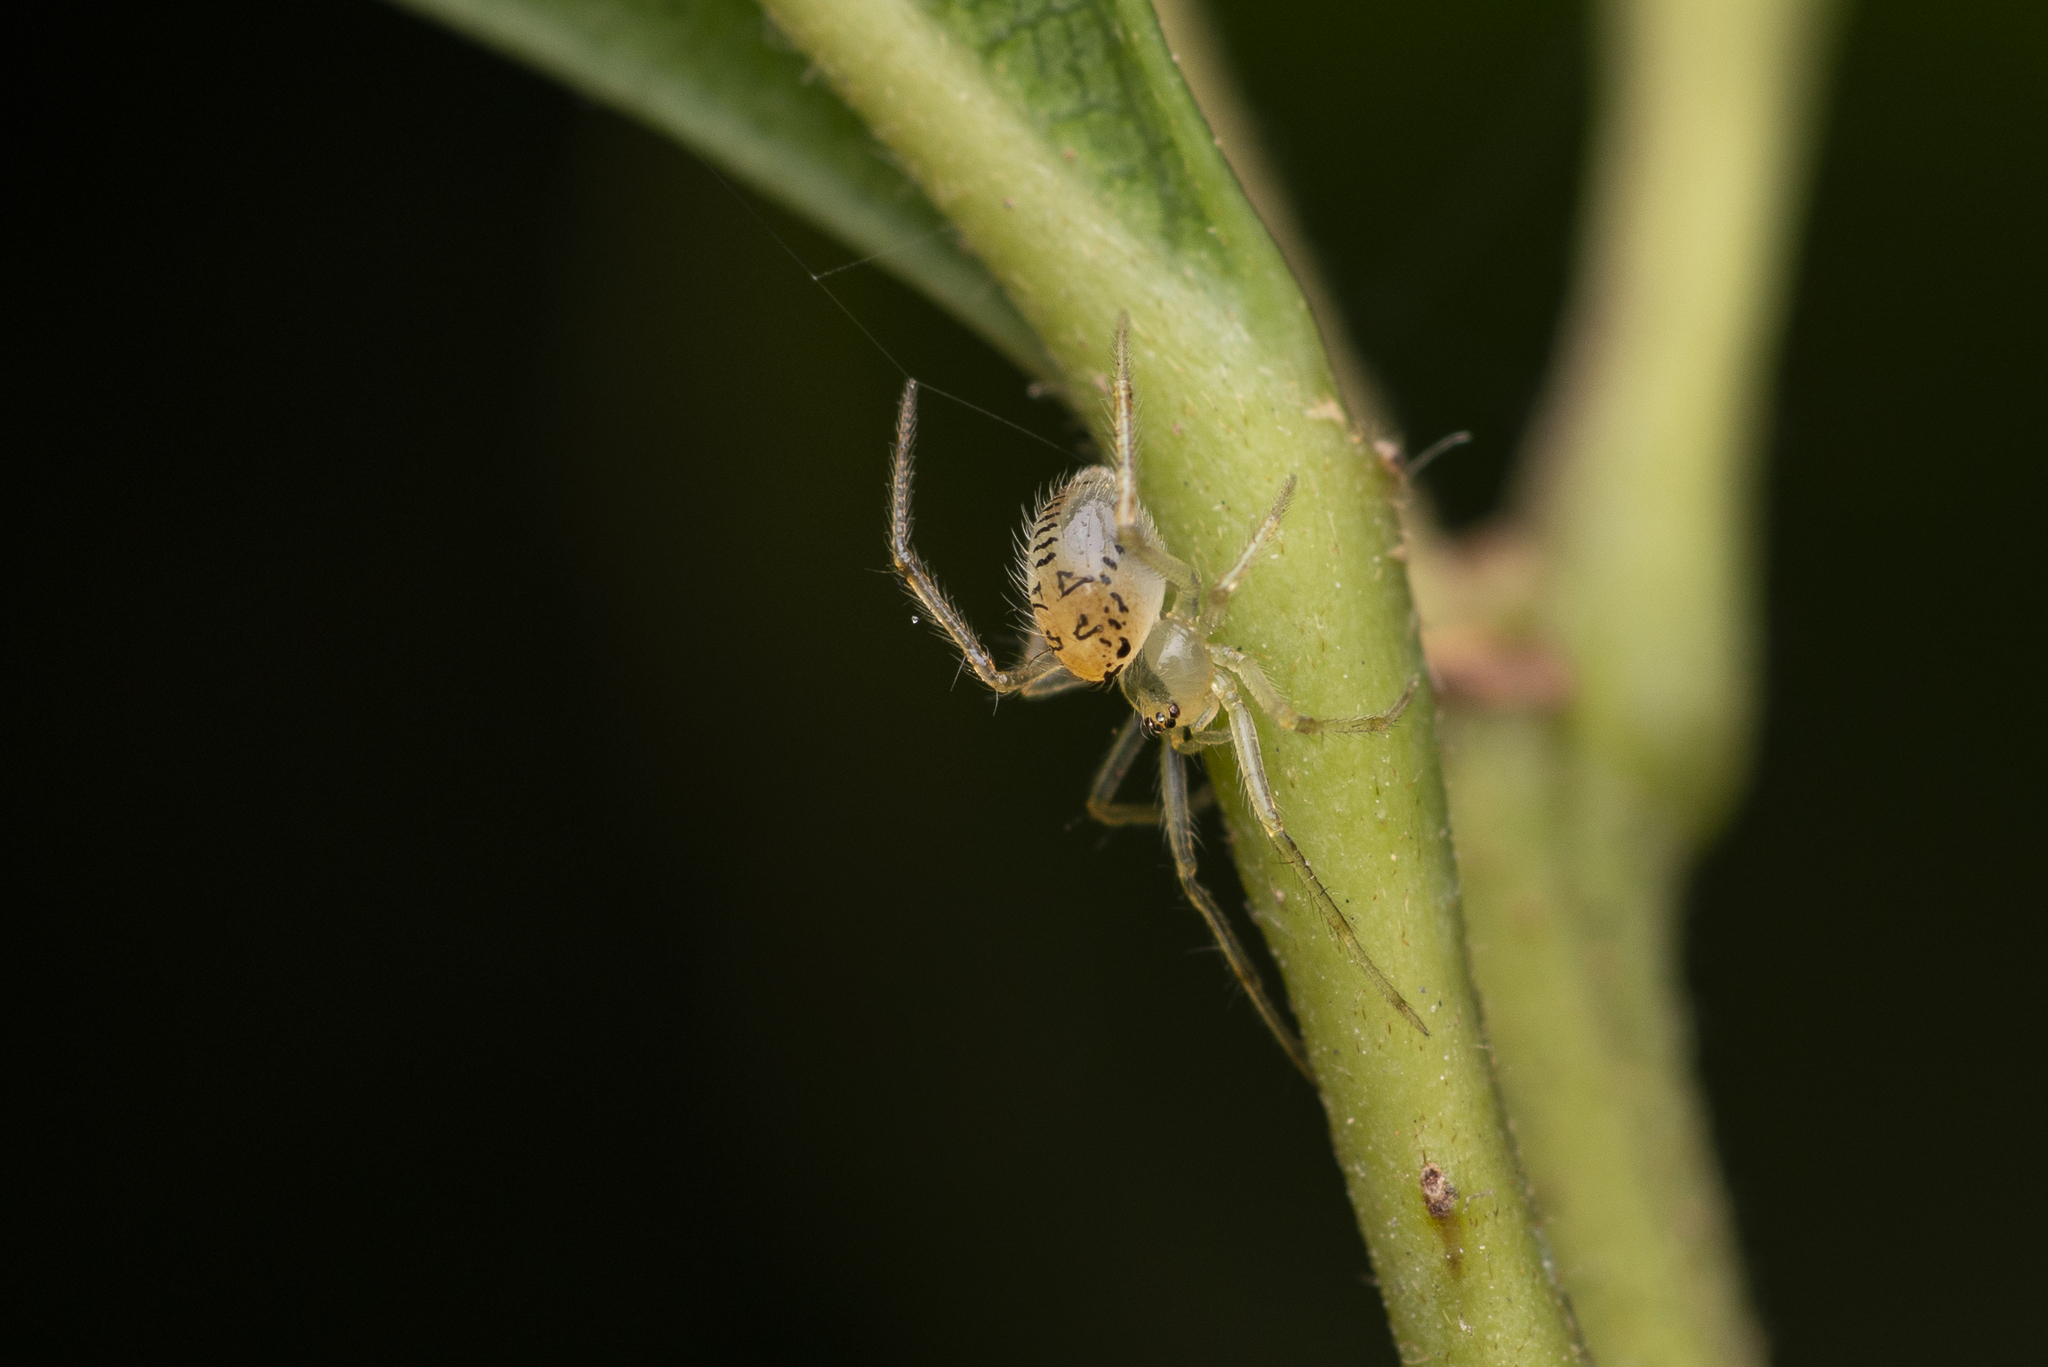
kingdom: Animalia
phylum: Arthropoda
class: Arachnida
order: Araneae
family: Theridiidae
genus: Phycosoma
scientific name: Phycosoma digitula
